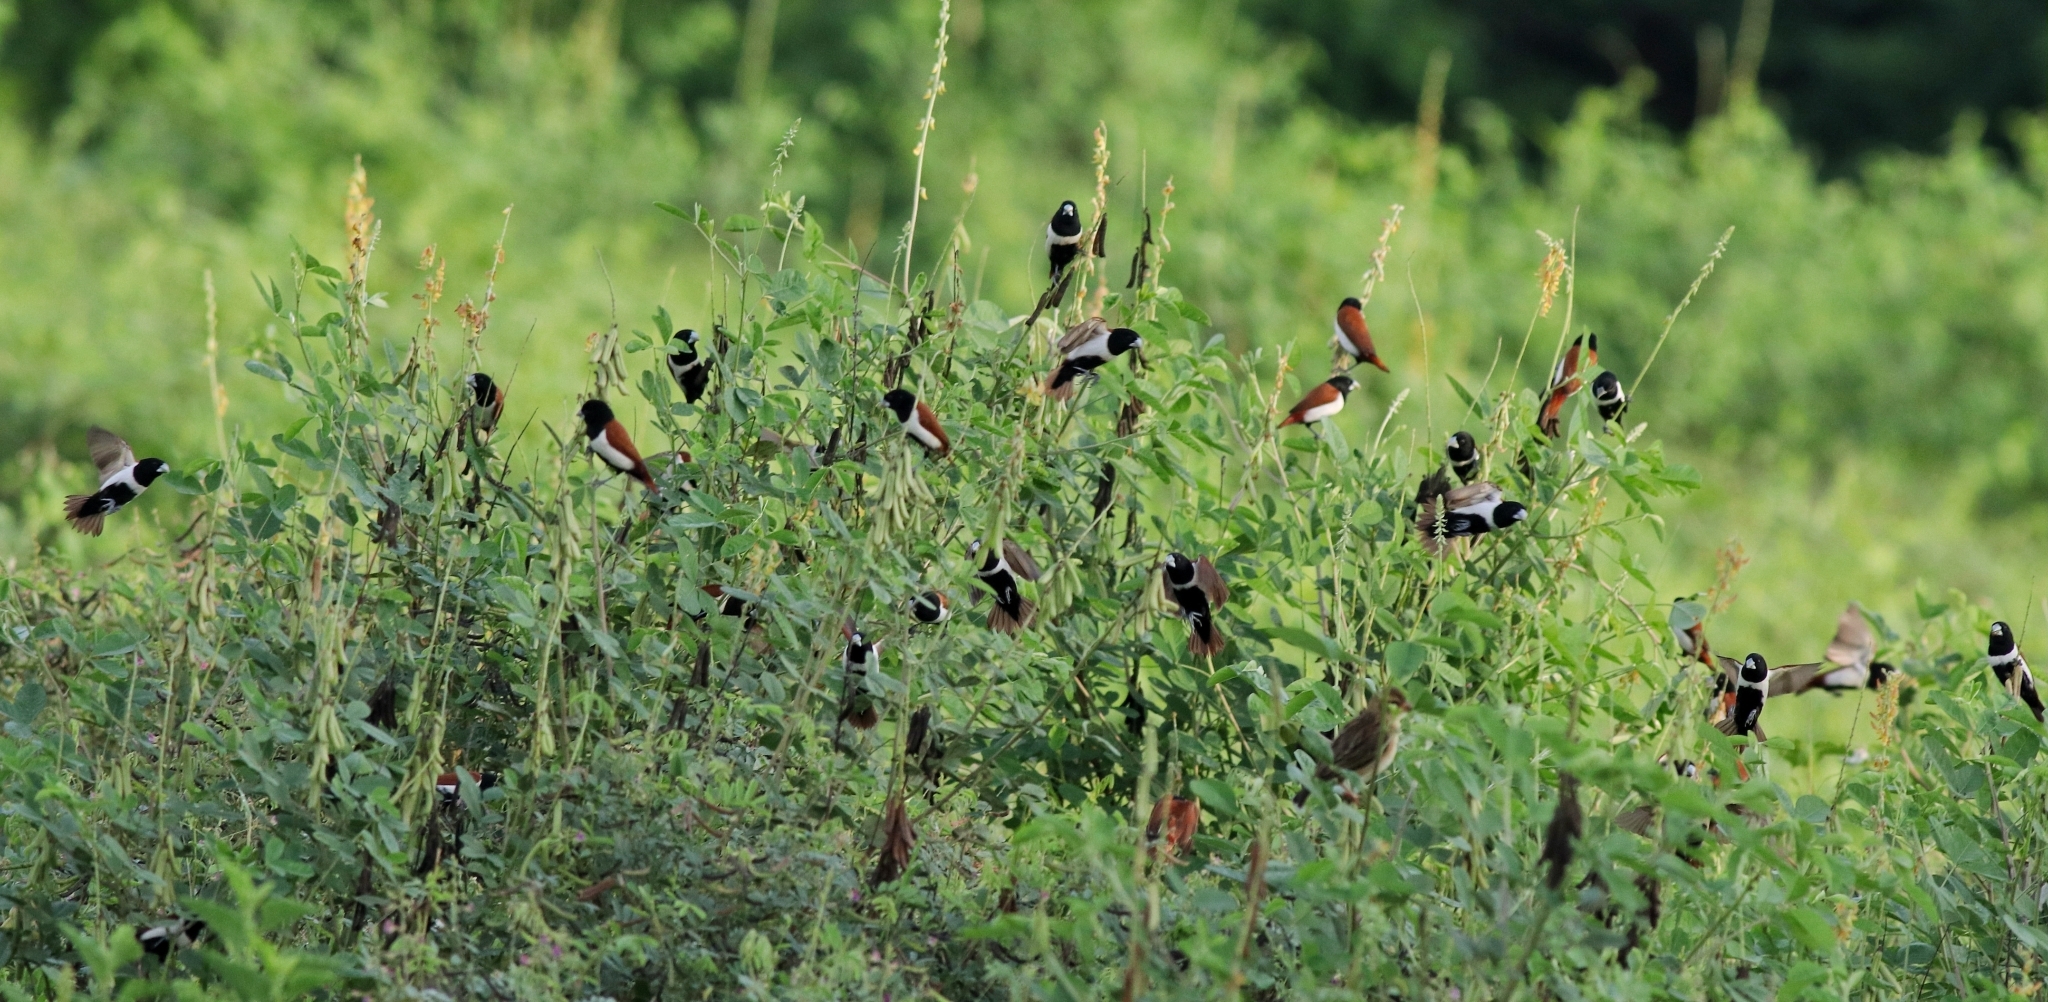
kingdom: Animalia
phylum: Chordata
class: Aves
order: Passeriformes
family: Estrildidae
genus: Lonchura
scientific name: Lonchura malacca
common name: Tricolored munia
